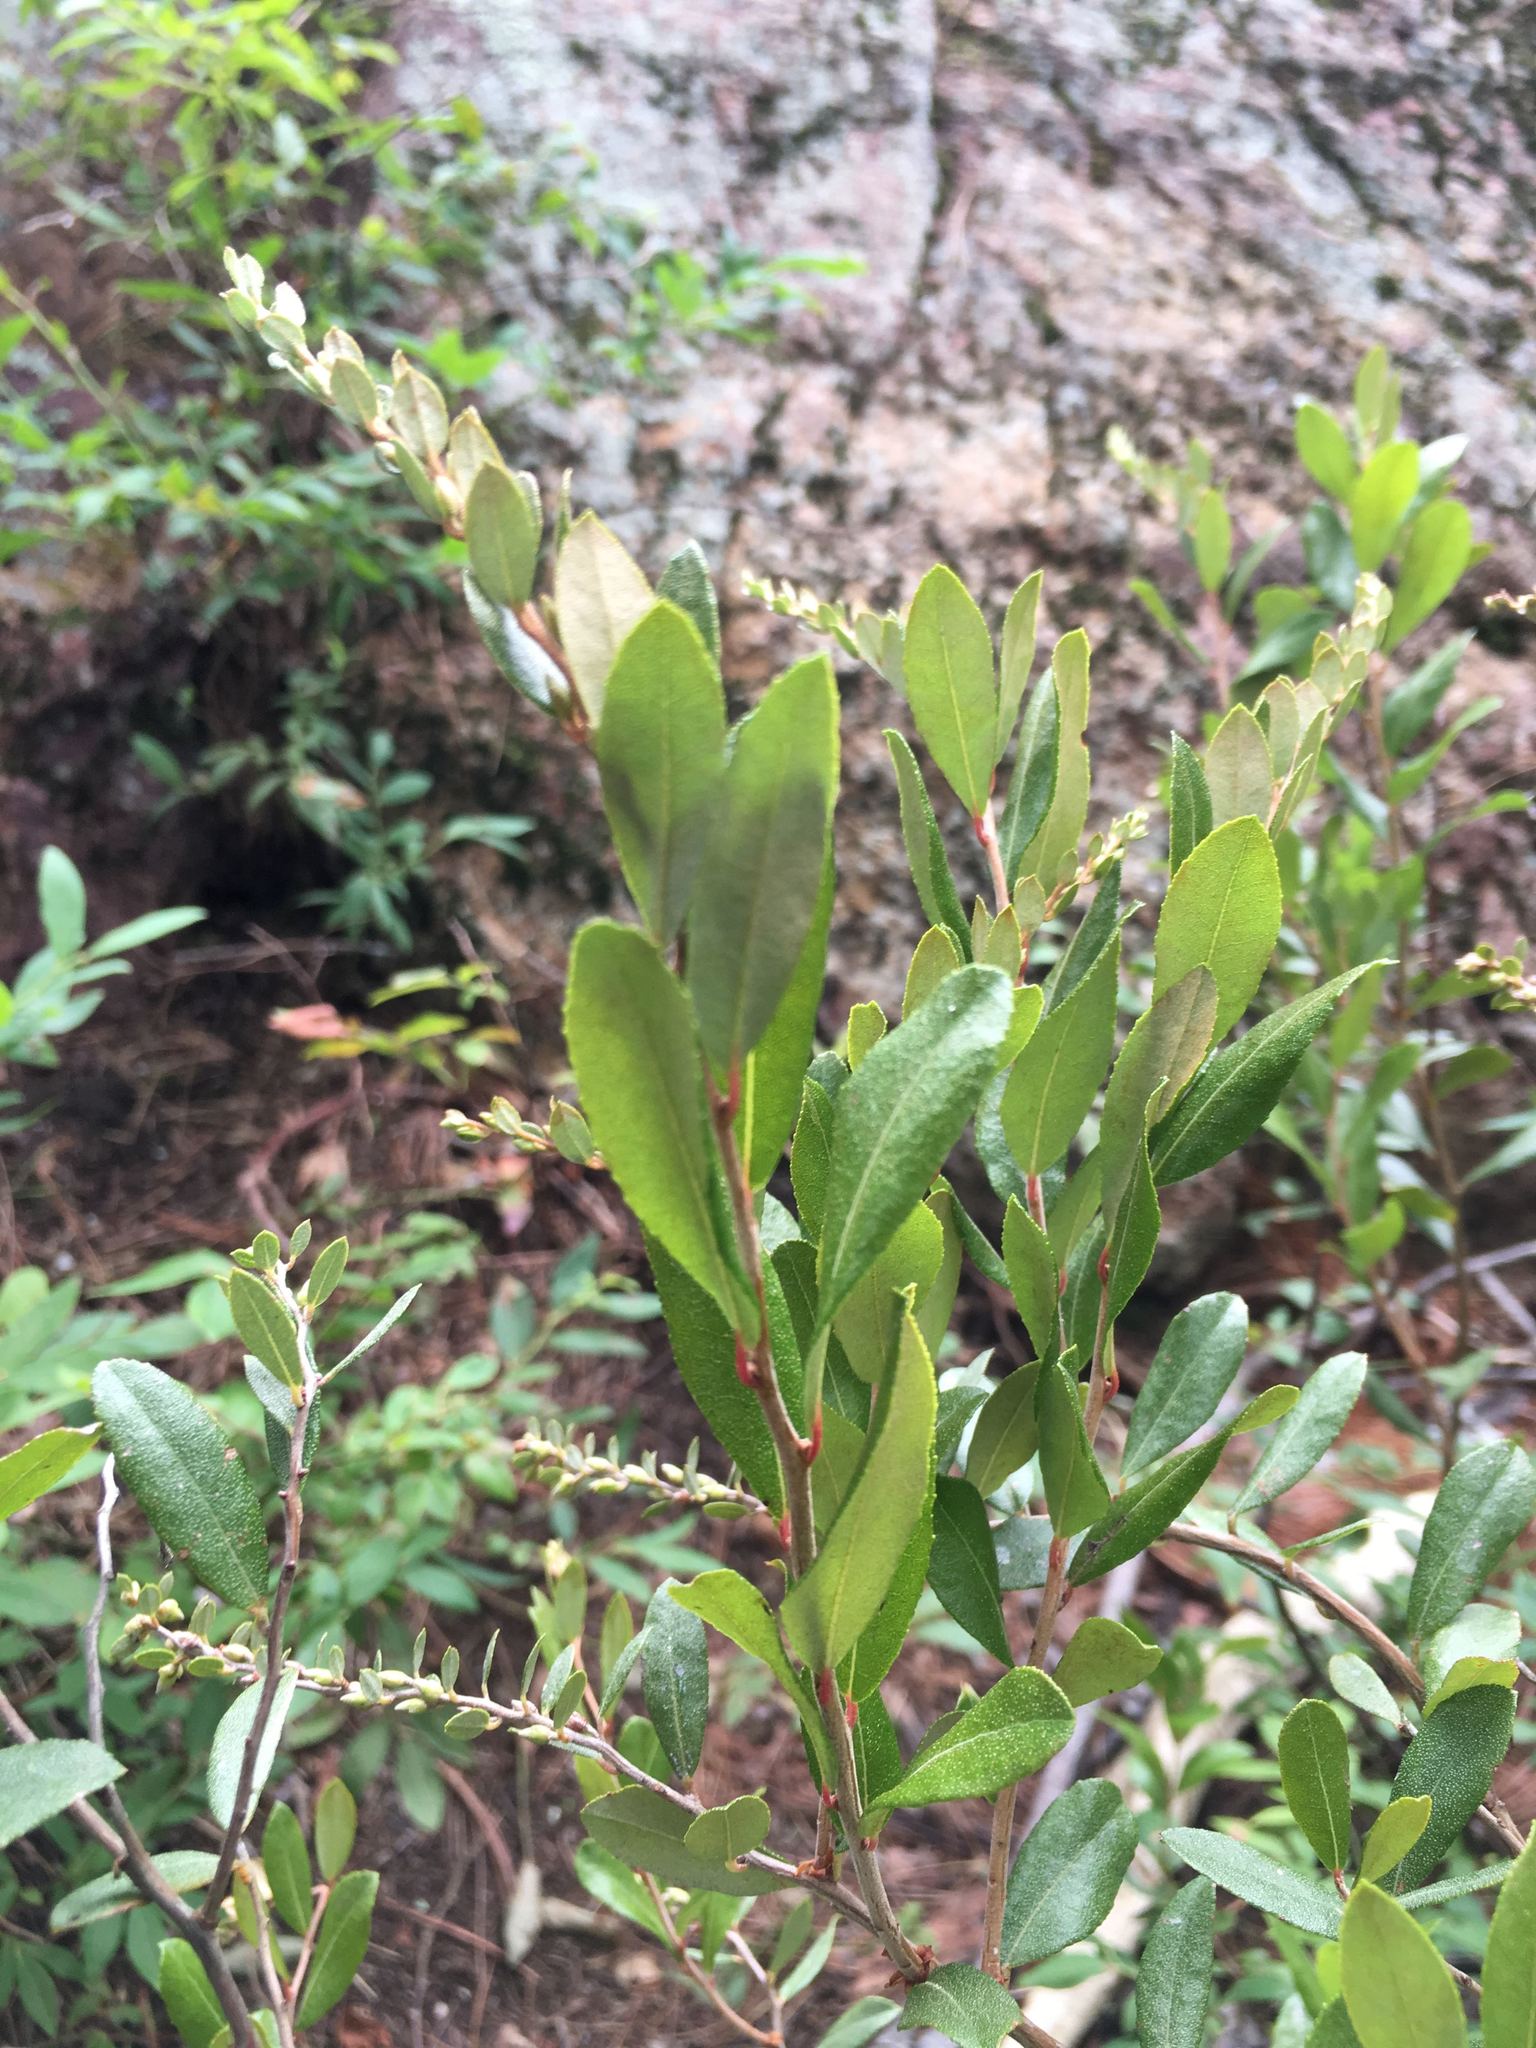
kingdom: Plantae
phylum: Tracheophyta
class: Magnoliopsida
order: Ericales
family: Ericaceae
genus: Chamaedaphne
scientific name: Chamaedaphne calyculata
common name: Leatherleaf
